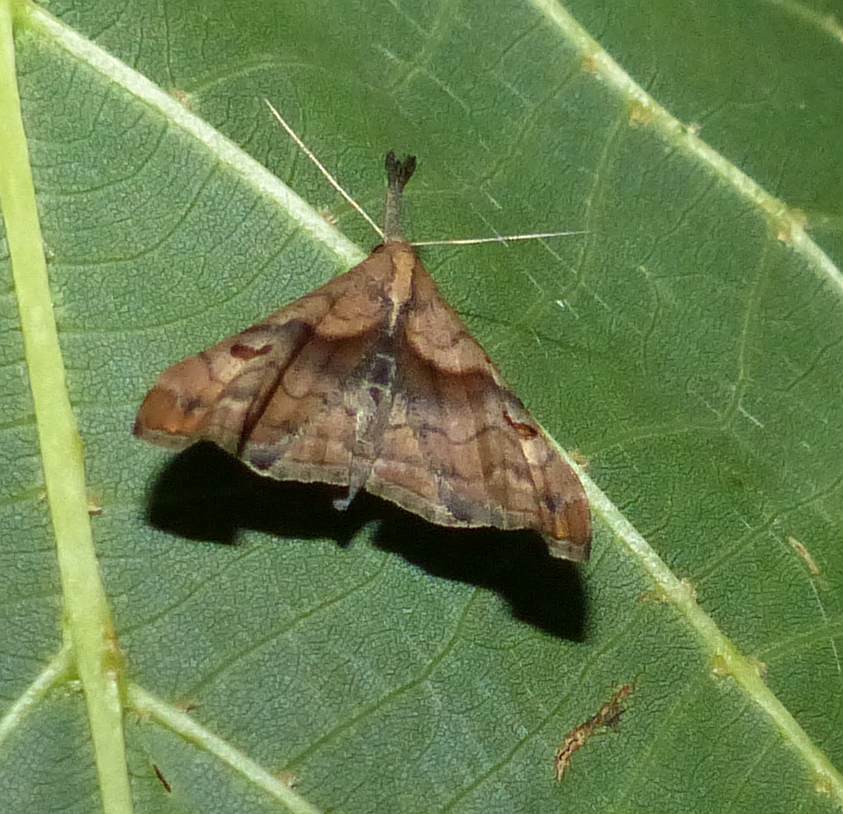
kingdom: Animalia
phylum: Arthropoda
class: Insecta
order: Lepidoptera
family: Erebidae
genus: Palthis
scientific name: Palthis angulalis
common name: Dark-spotted palthis moth
